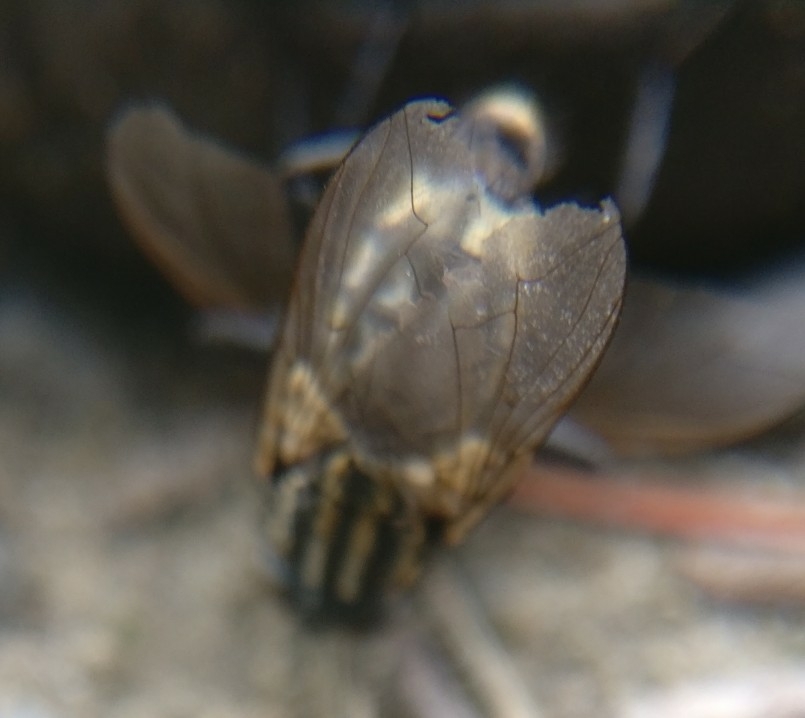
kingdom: Animalia
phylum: Arthropoda
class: Insecta
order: Diptera
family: Sarcophagidae
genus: Oxysarcodexia
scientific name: Oxysarcodexia varia
